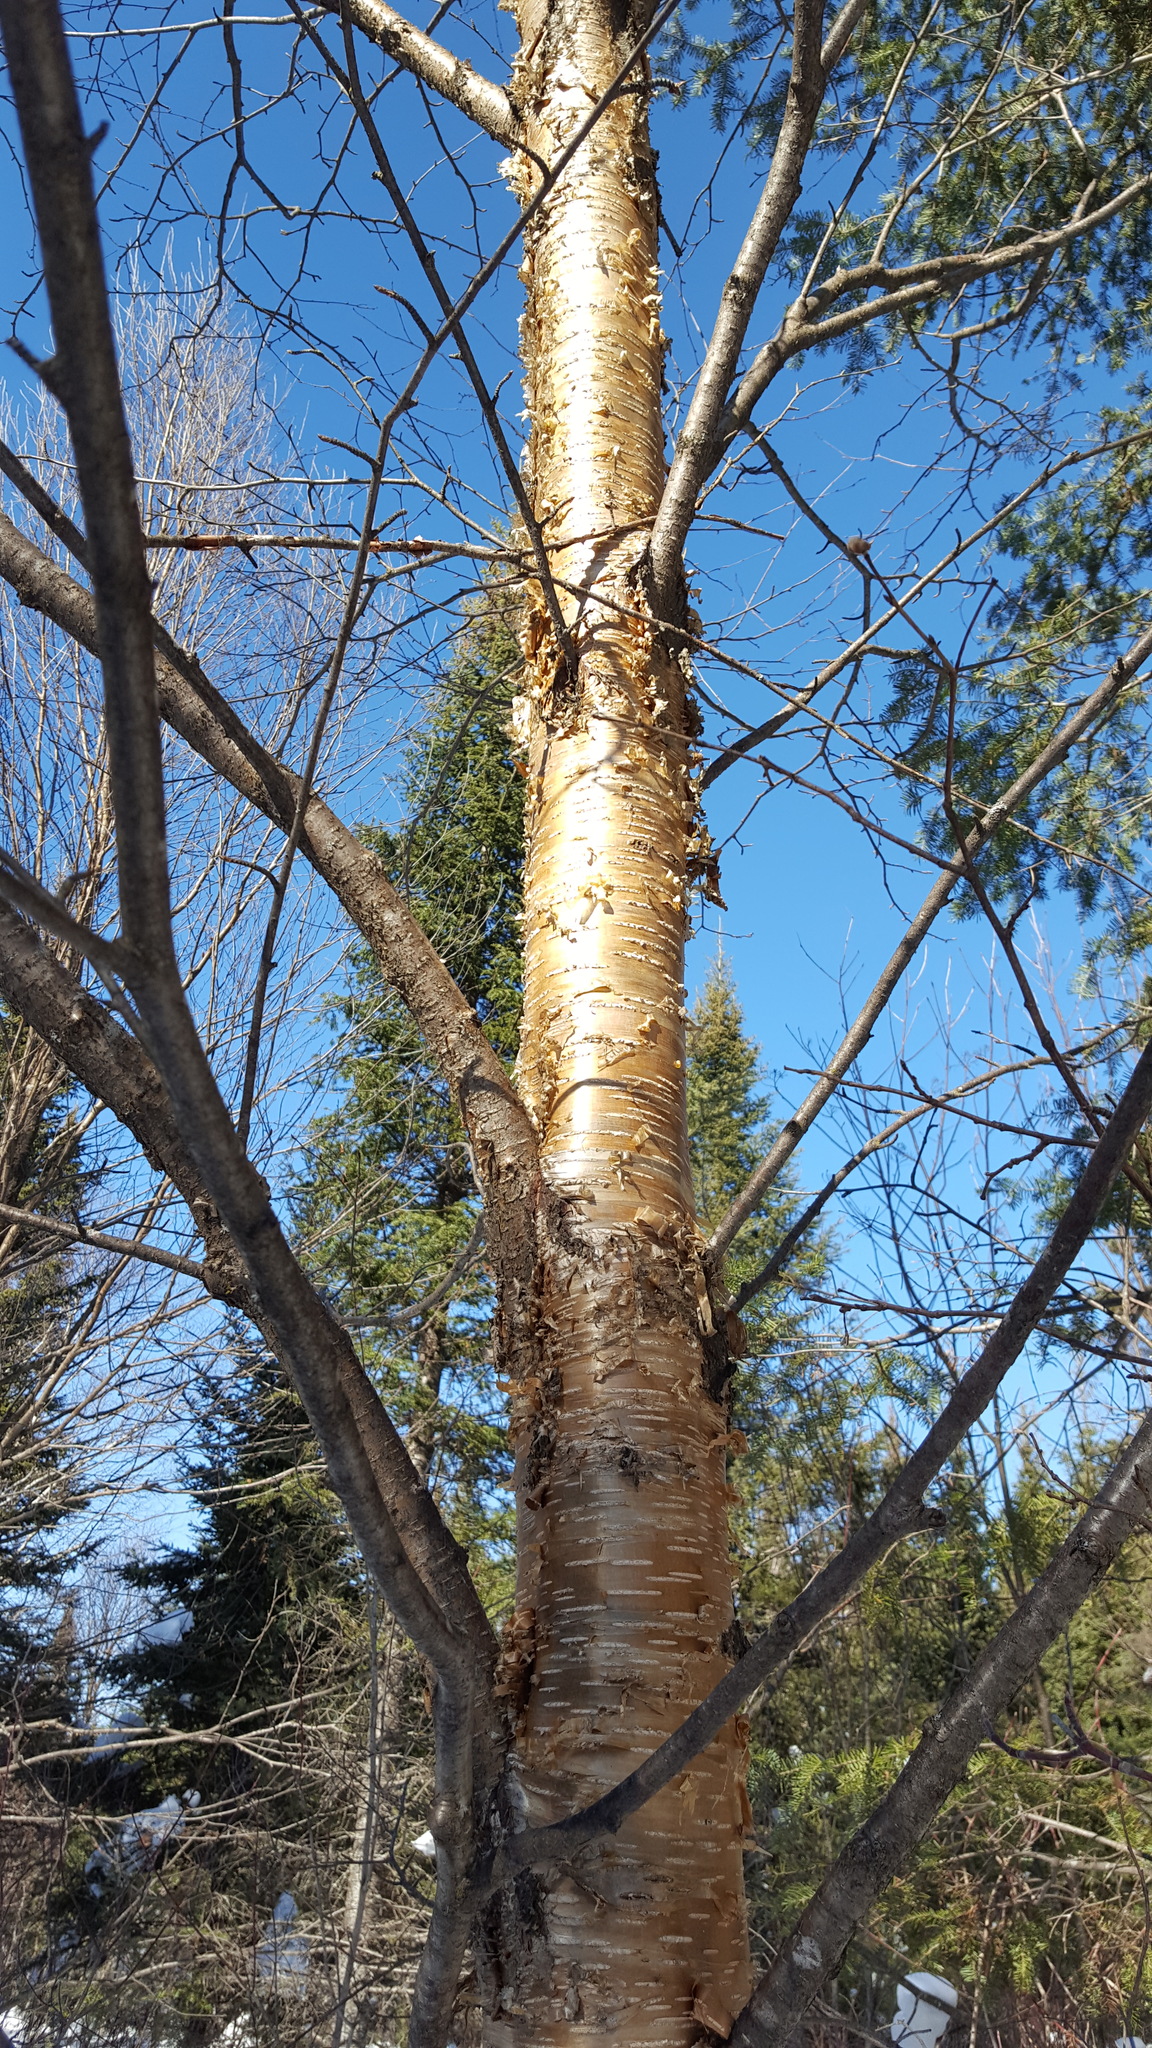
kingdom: Plantae
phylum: Tracheophyta
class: Magnoliopsida
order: Fagales
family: Betulaceae
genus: Betula
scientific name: Betula alleghaniensis
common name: Yellow birch
